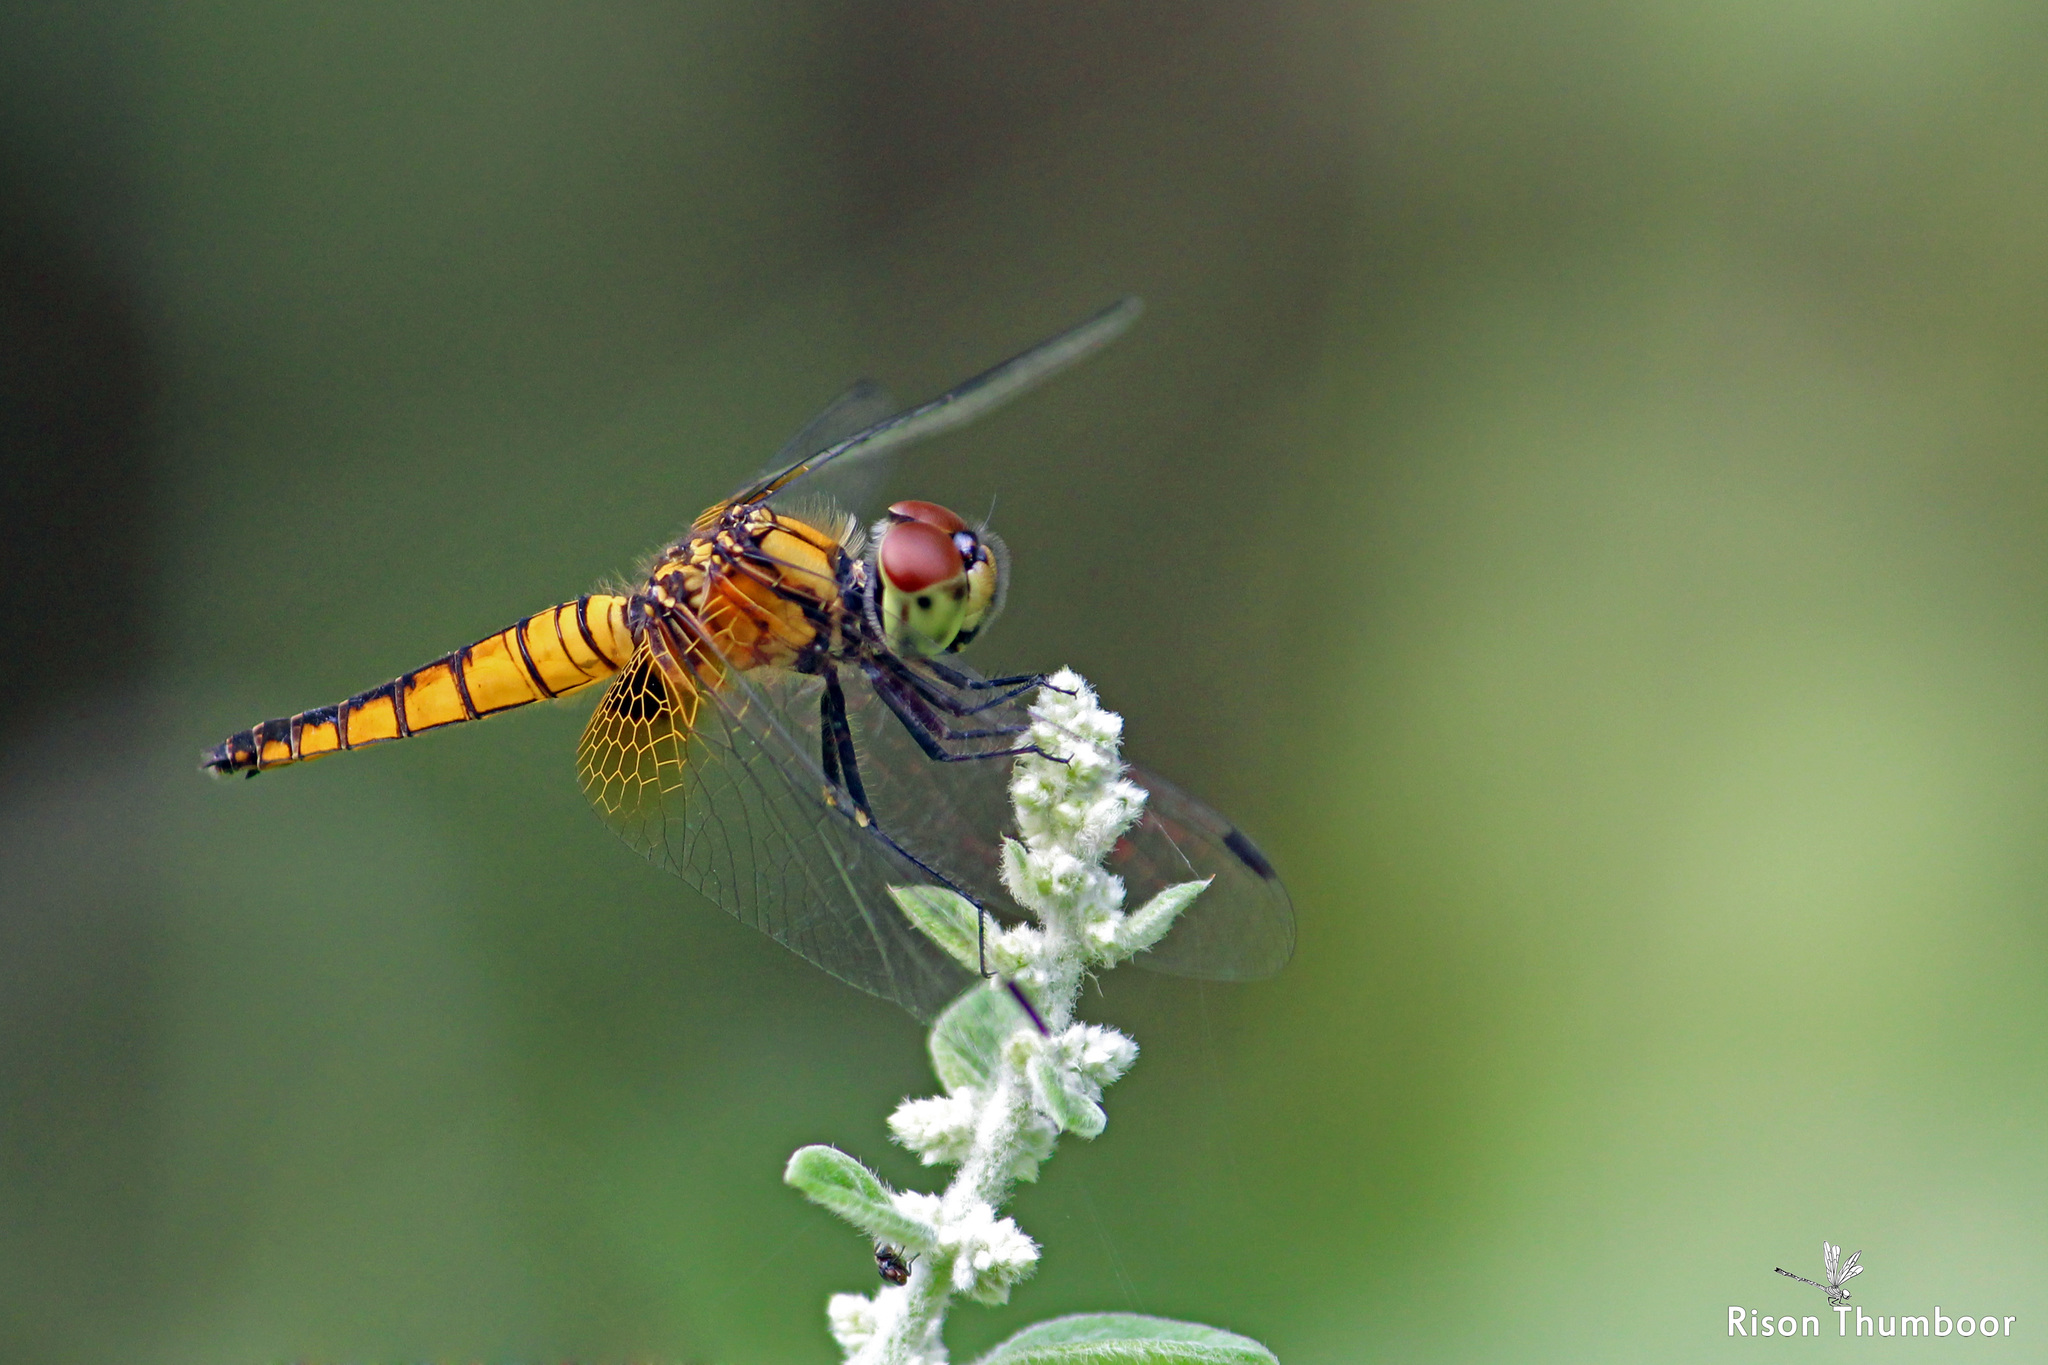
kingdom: Animalia
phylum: Arthropoda
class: Insecta
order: Odonata
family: Libellulidae
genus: Aethriamanta
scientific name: Aethriamanta brevipennis
